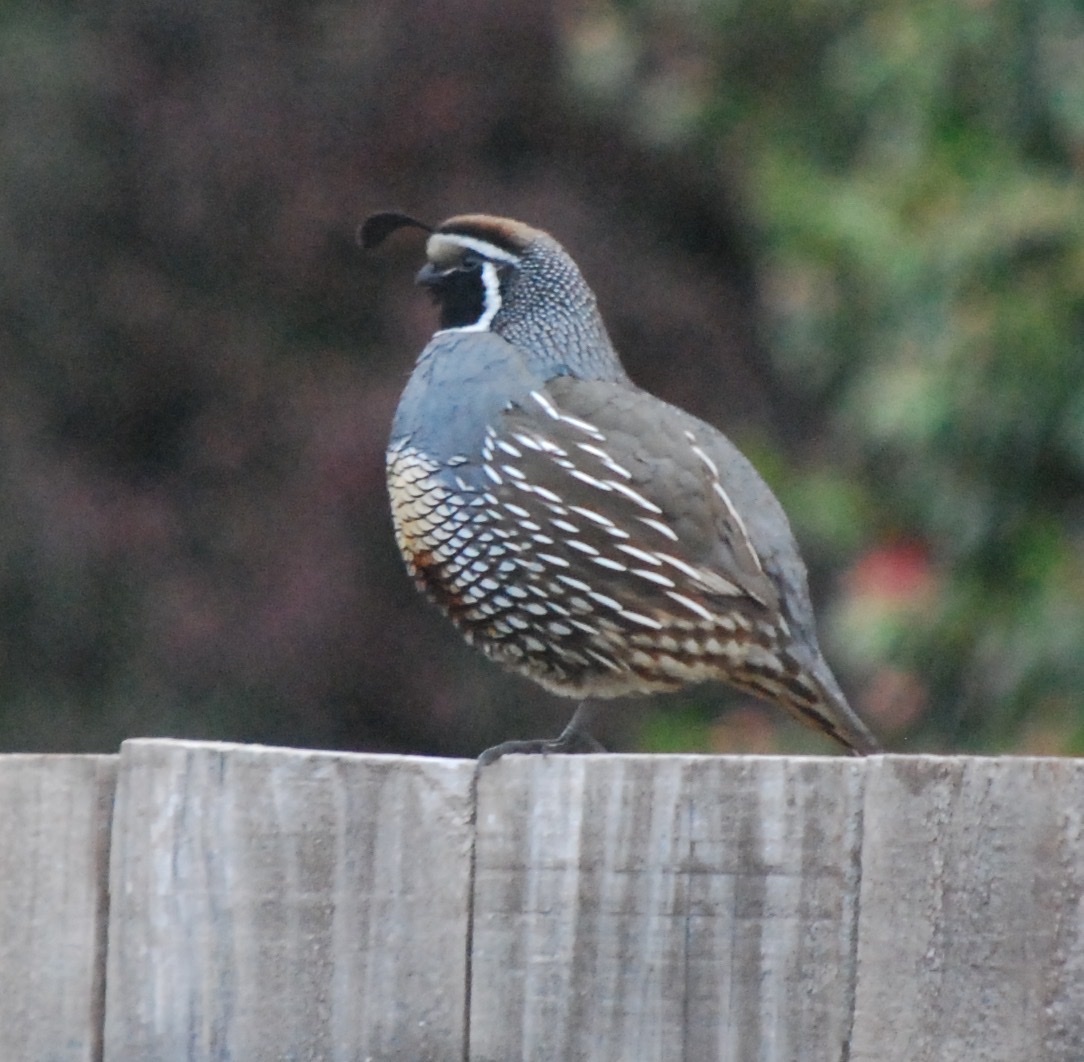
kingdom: Animalia
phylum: Chordata
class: Aves
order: Galliformes
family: Odontophoridae
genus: Callipepla
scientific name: Callipepla californica
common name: California quail
